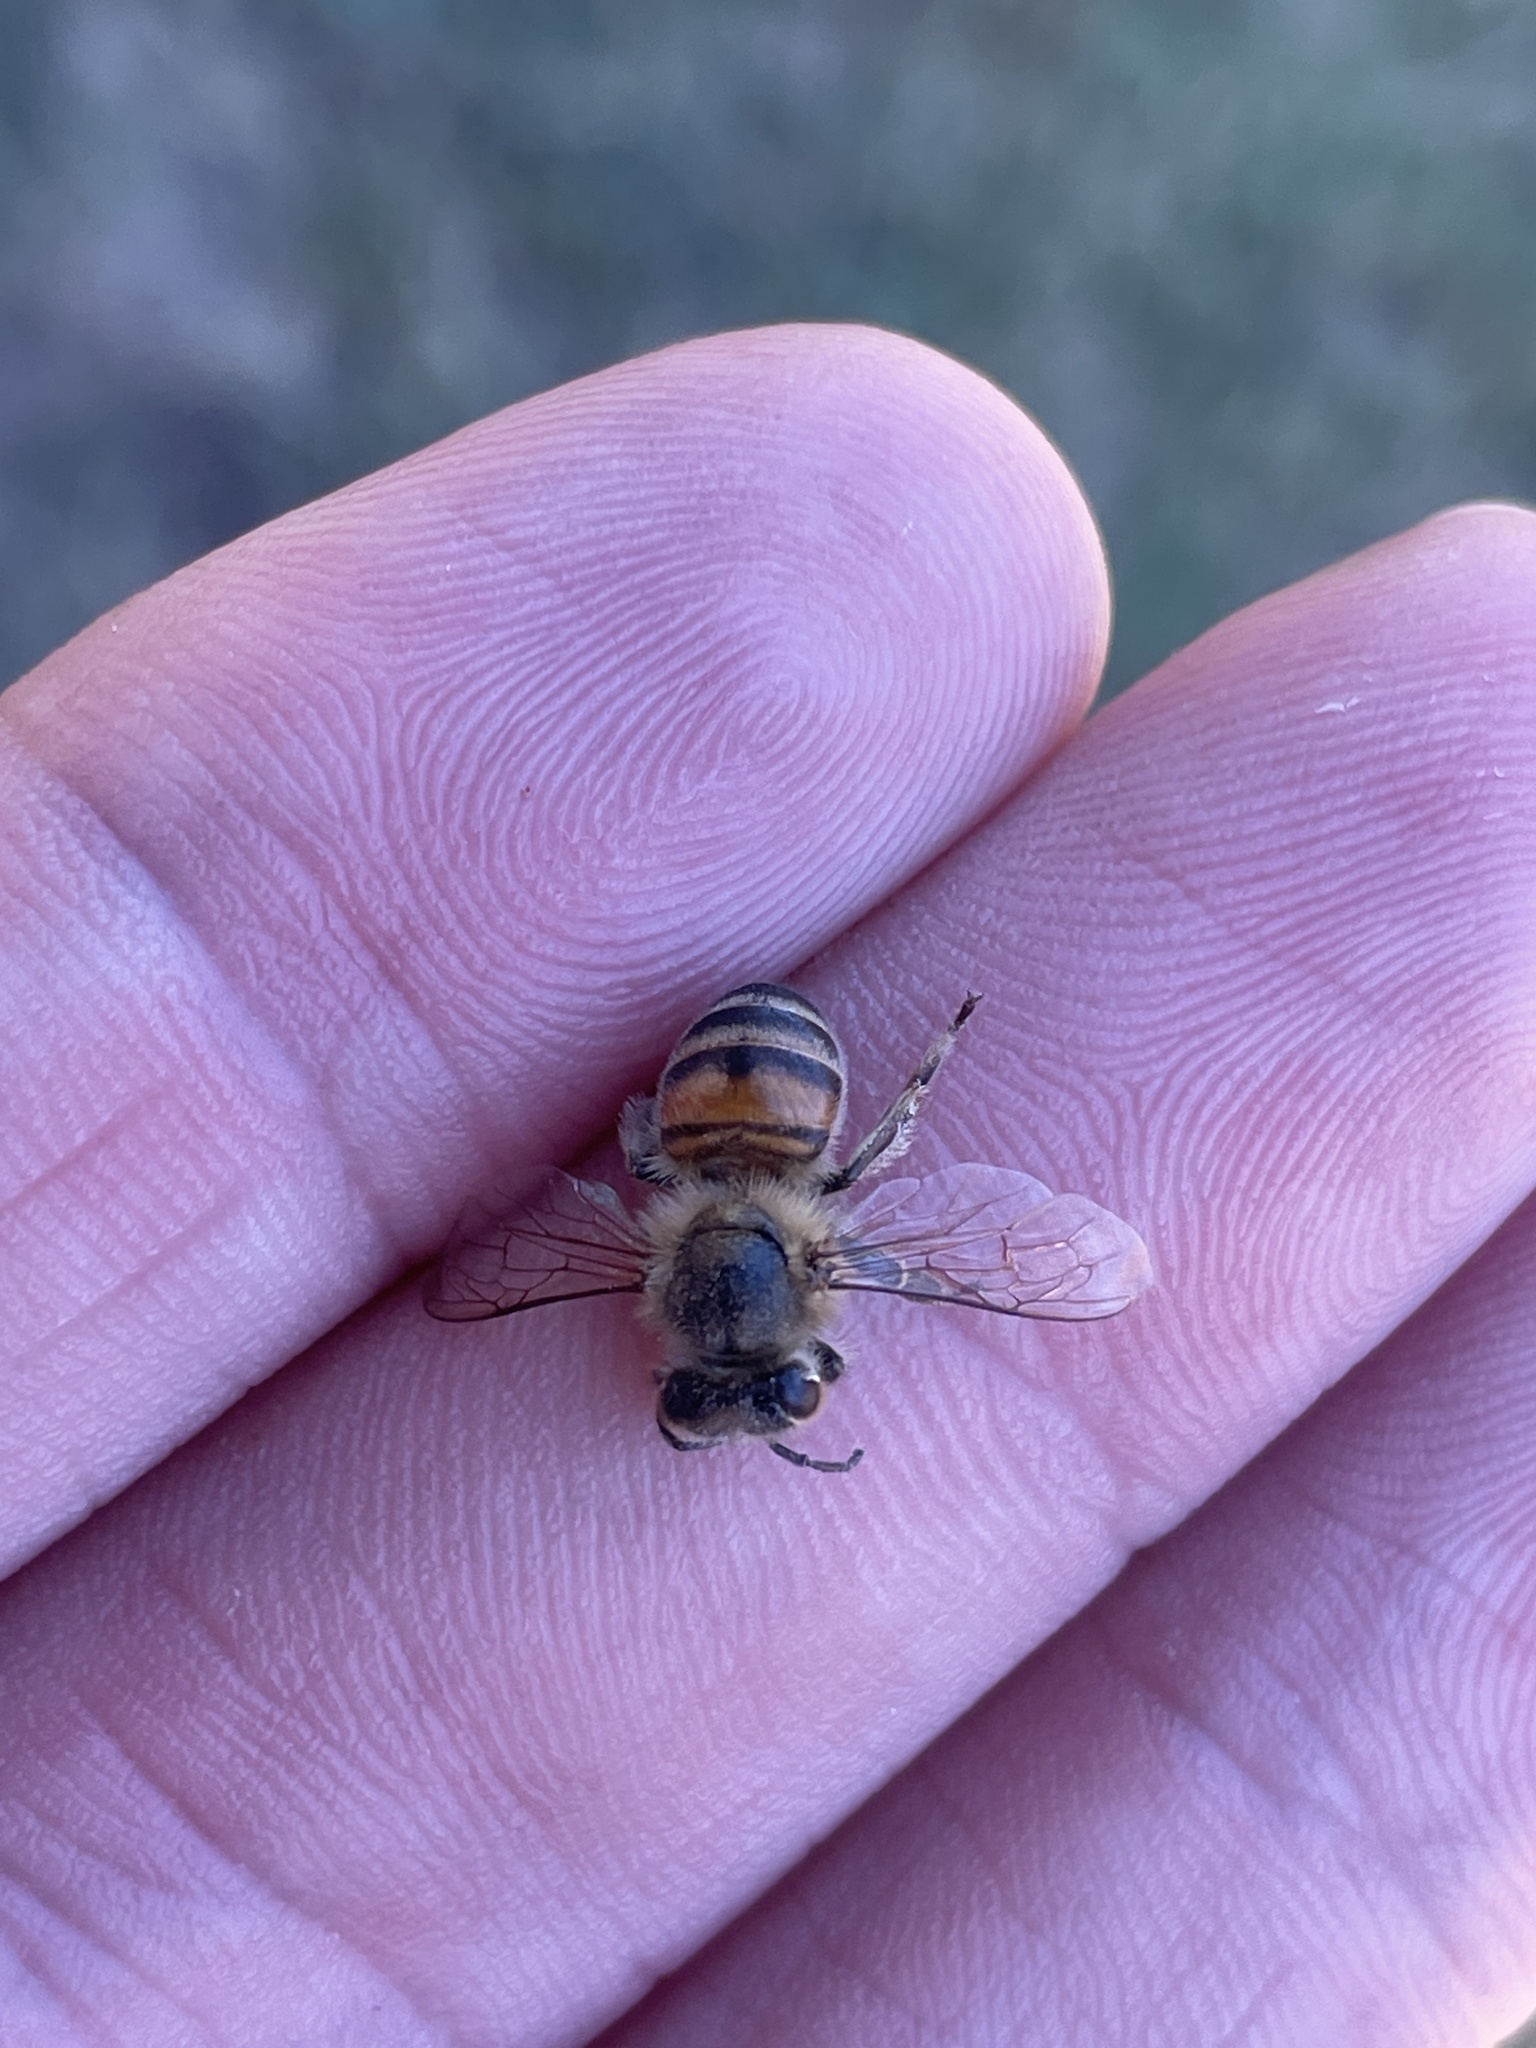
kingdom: Animalia
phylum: Arthropoda
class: Insecta
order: Hymenoptera
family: Apidae
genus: Apis
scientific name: Apis mellifera
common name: Honey bee
